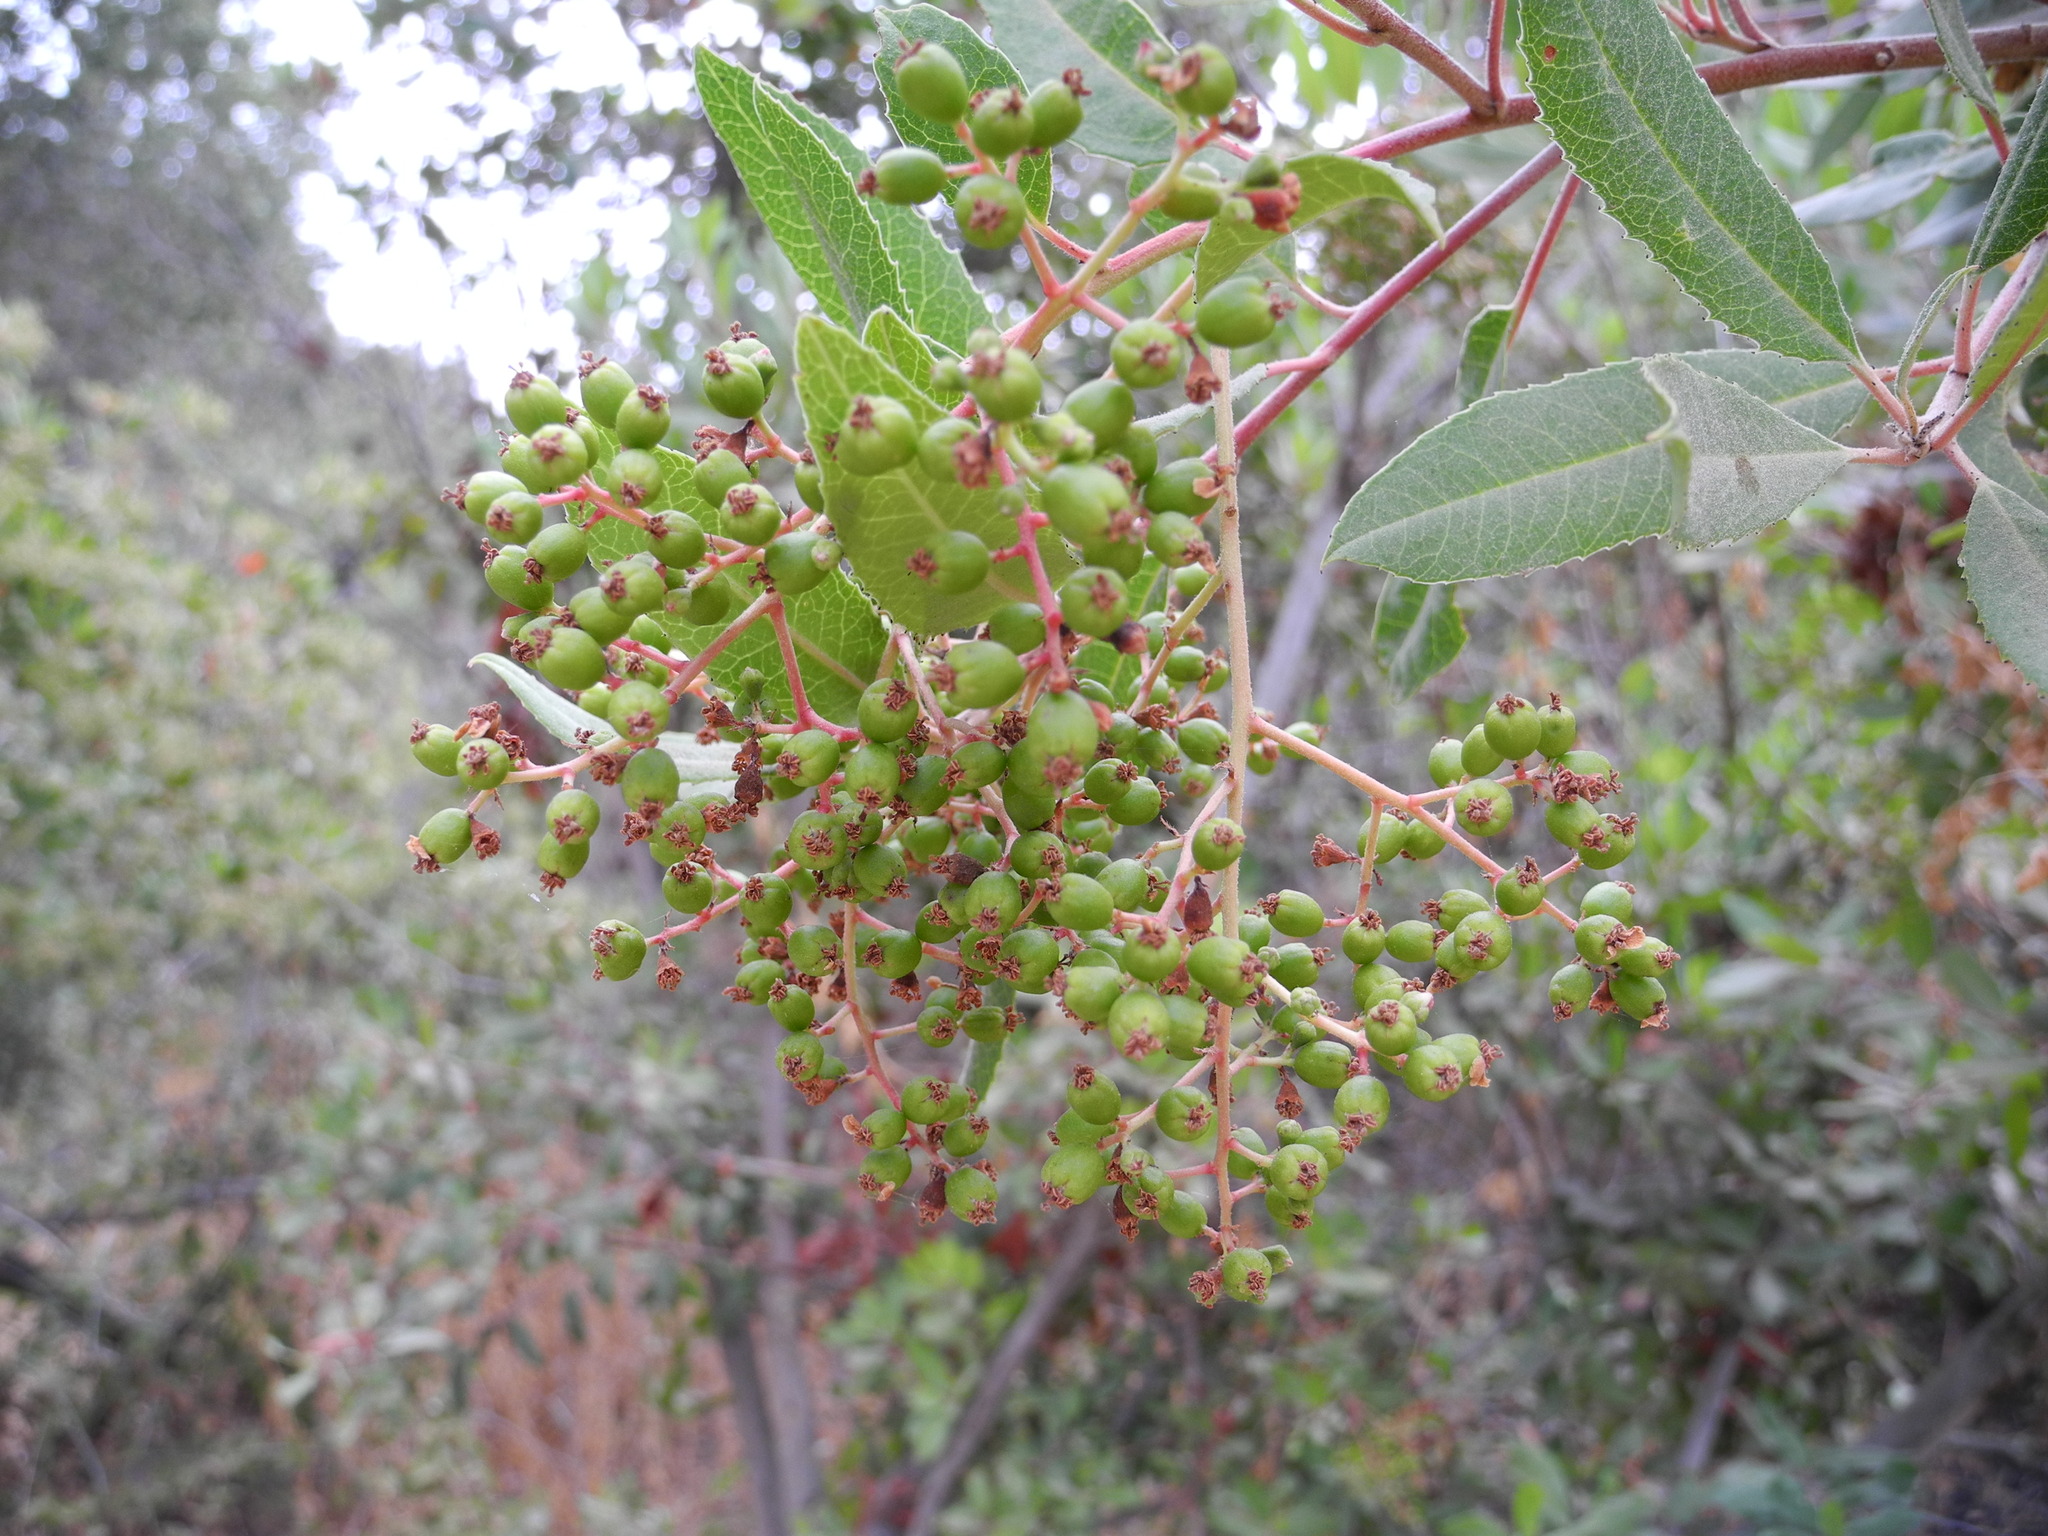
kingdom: Plantae
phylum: Tracheophyta
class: Magnoliopsida
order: Rosales
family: Rosaceae
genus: Heteromeles
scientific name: Heteromeles arbutifolia
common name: California-holly
